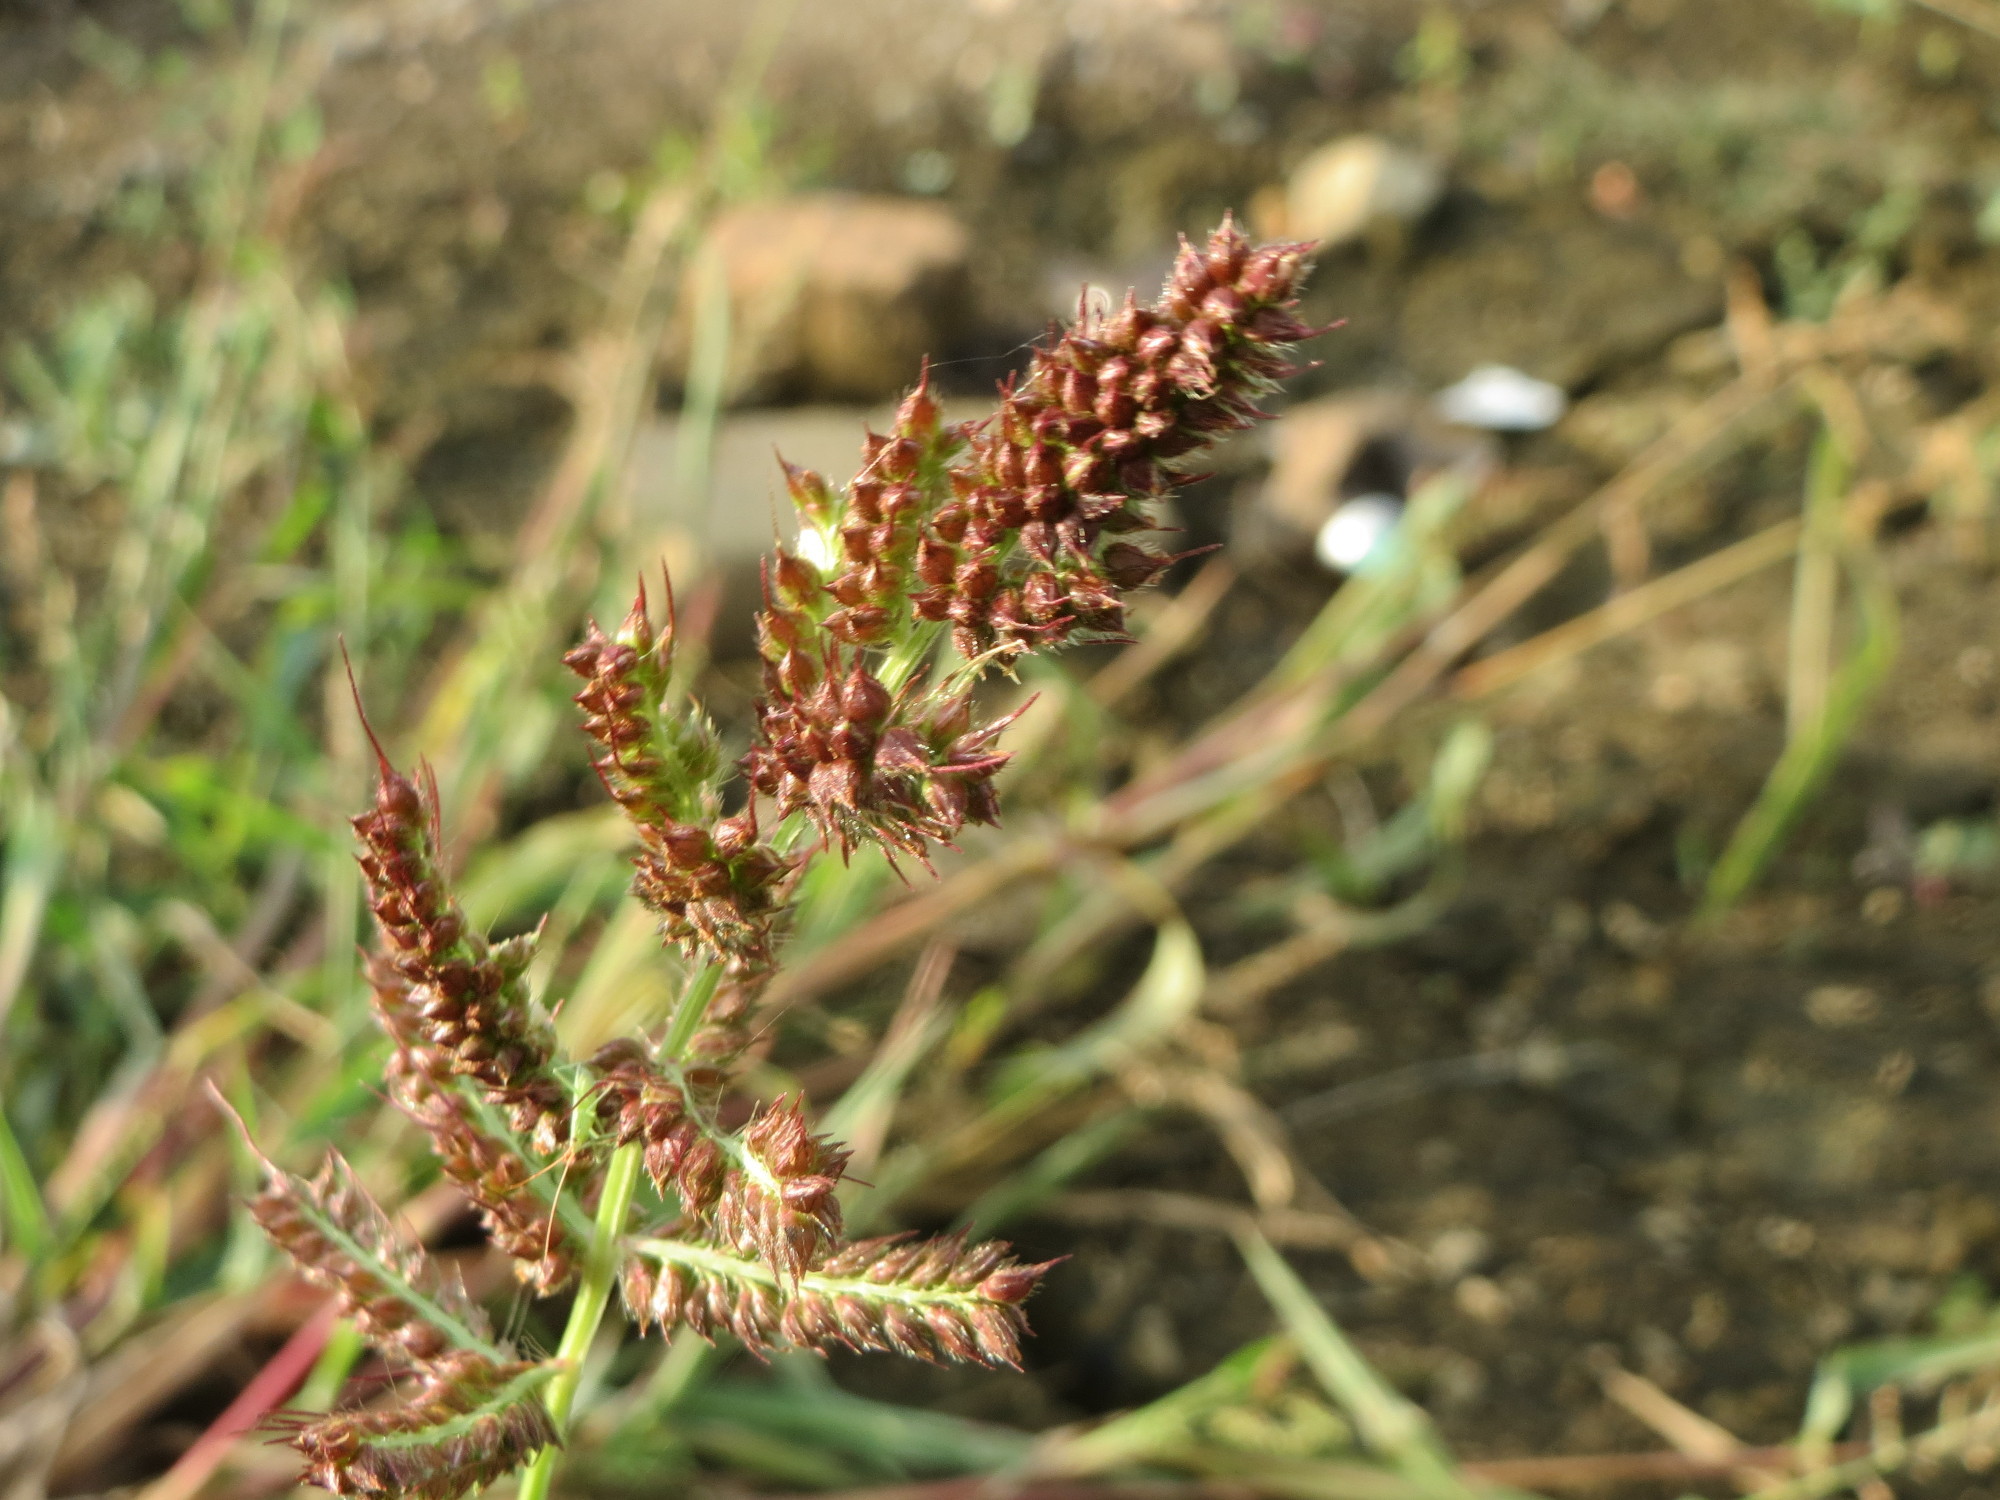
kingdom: Plantae
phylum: Tracheophyta
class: Liliopsida
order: Poales
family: Poaceae
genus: Echinochloa
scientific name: Echinochloa crus-galli
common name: Cockspur
